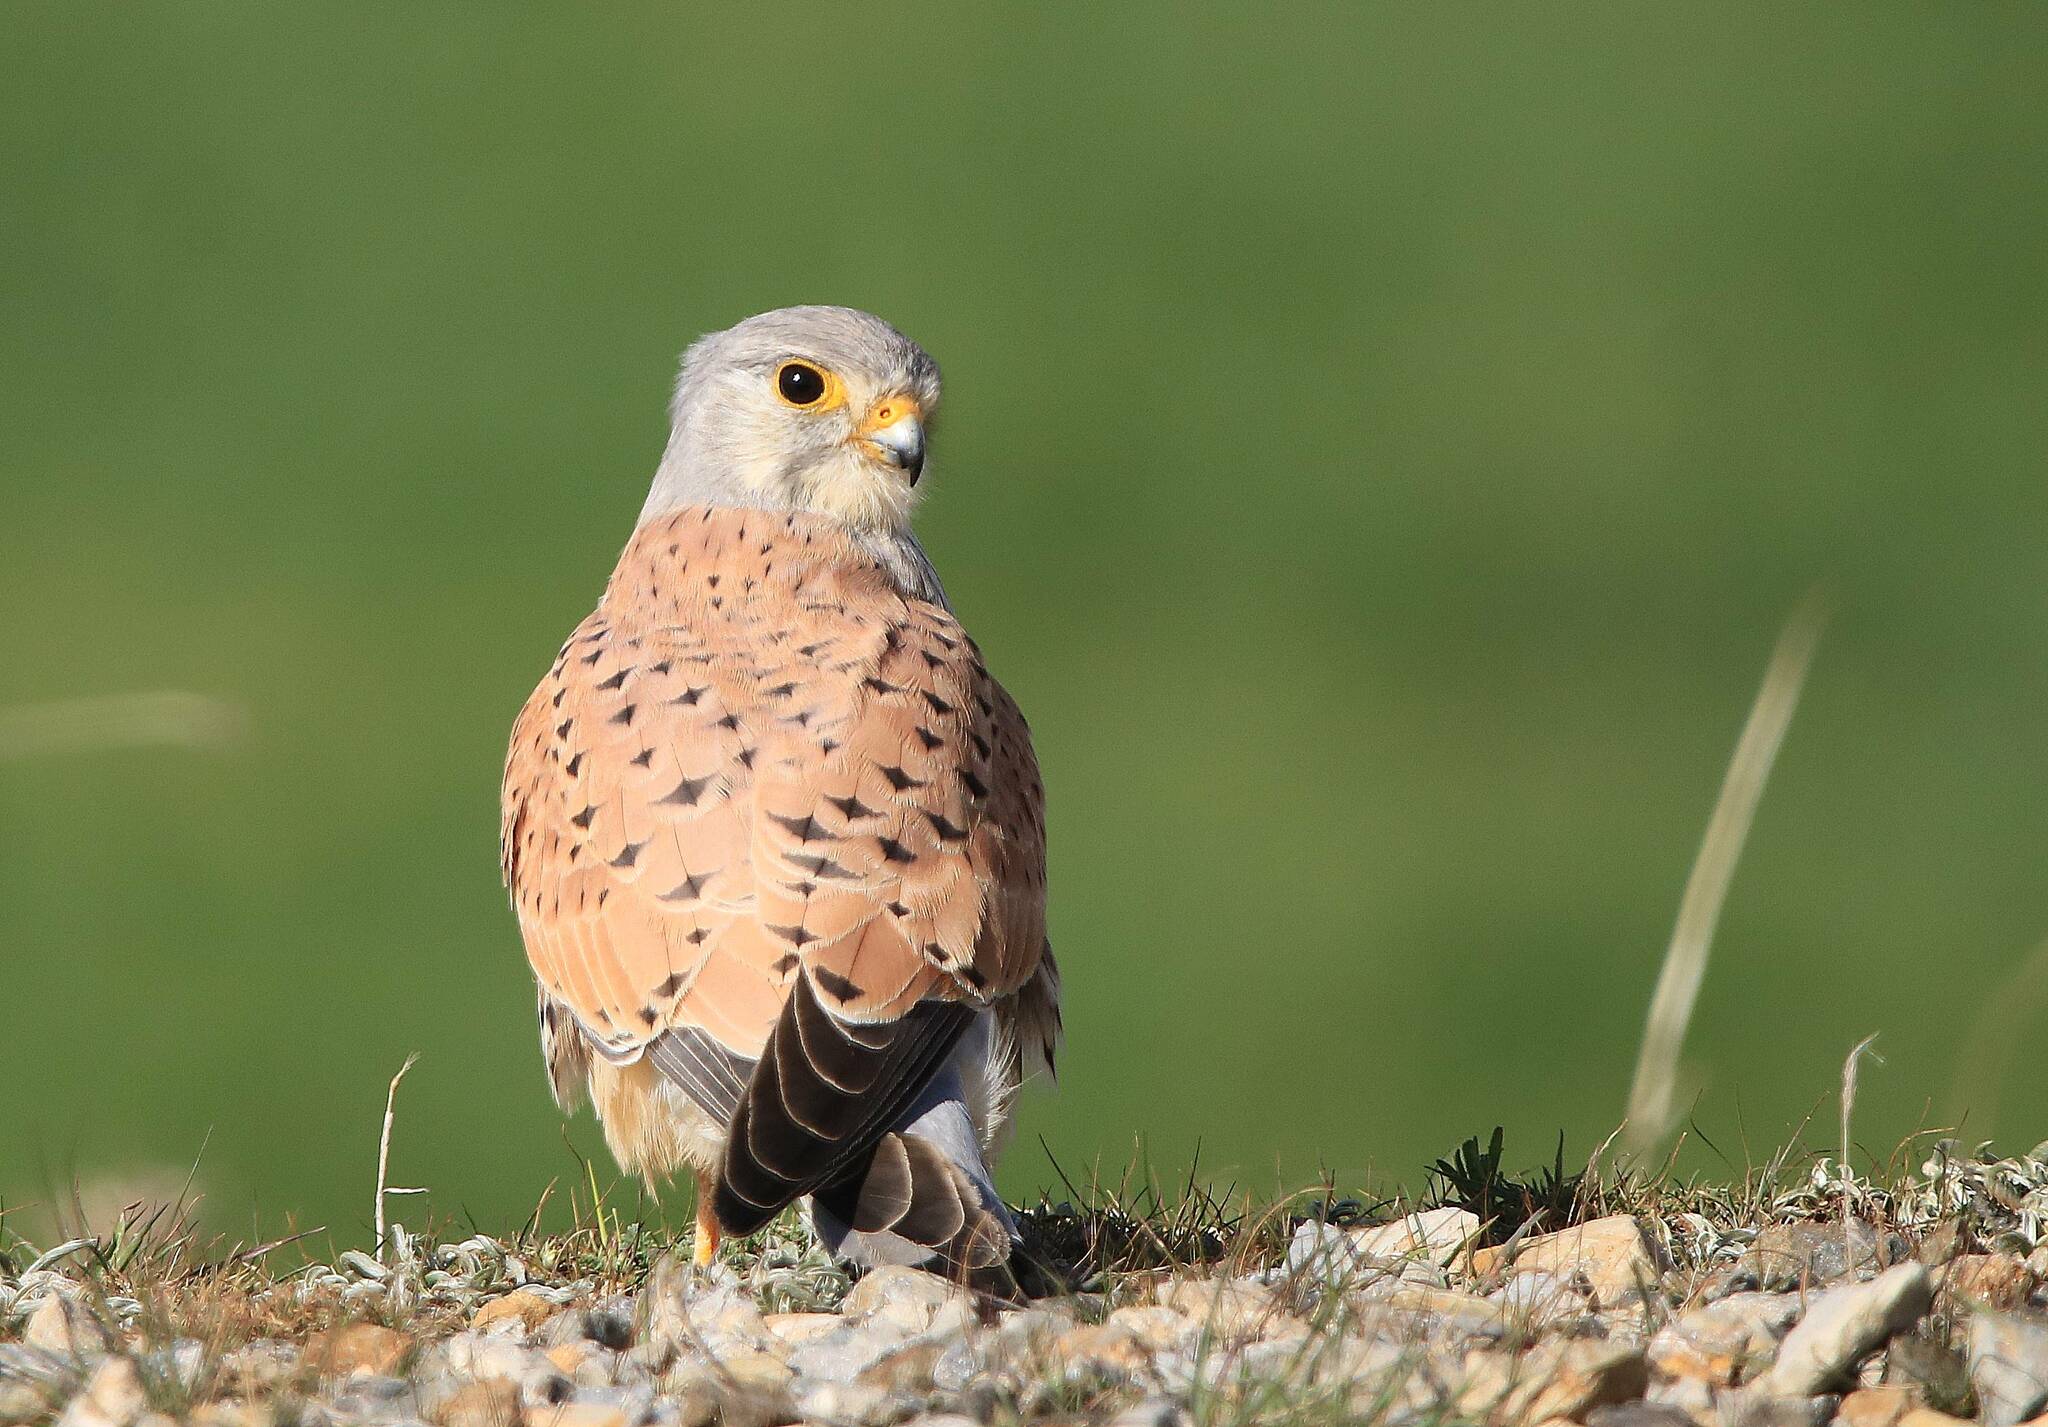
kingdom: Animalia
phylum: Chordata
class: Aves
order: Falconiformes
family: Falconidae
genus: Falco
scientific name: Falco tinnunculus
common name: Common kestrel
